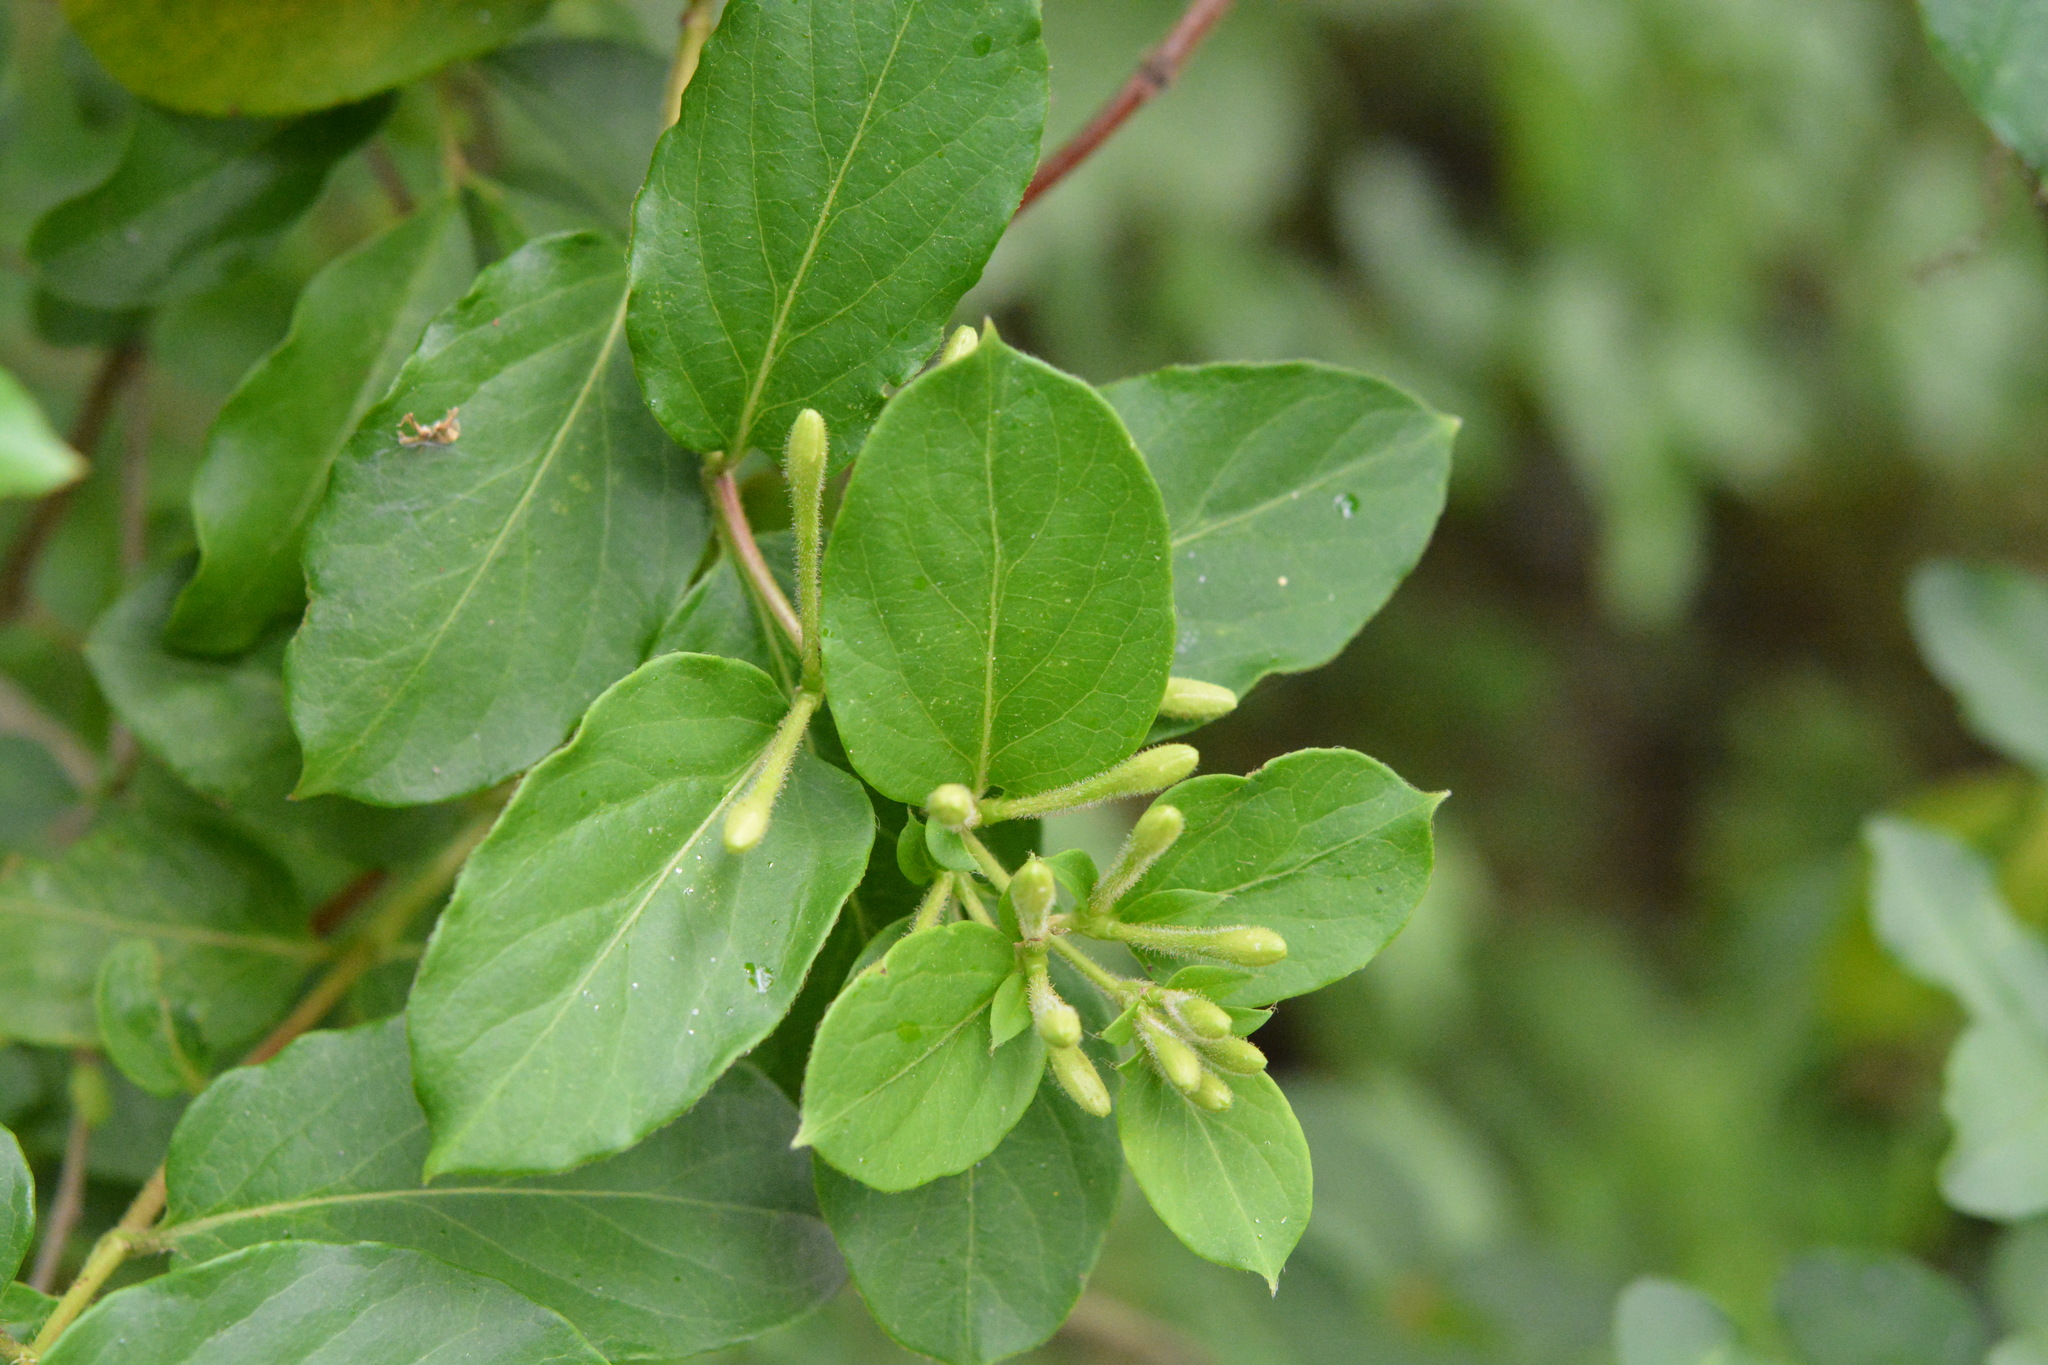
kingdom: Plantae
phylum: Tracheophyta
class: Magnoliopsida
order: Dipsacales
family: Caprifoliaceae
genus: Lonicera
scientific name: Lonicera japonica
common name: Japanese honeysuckle
